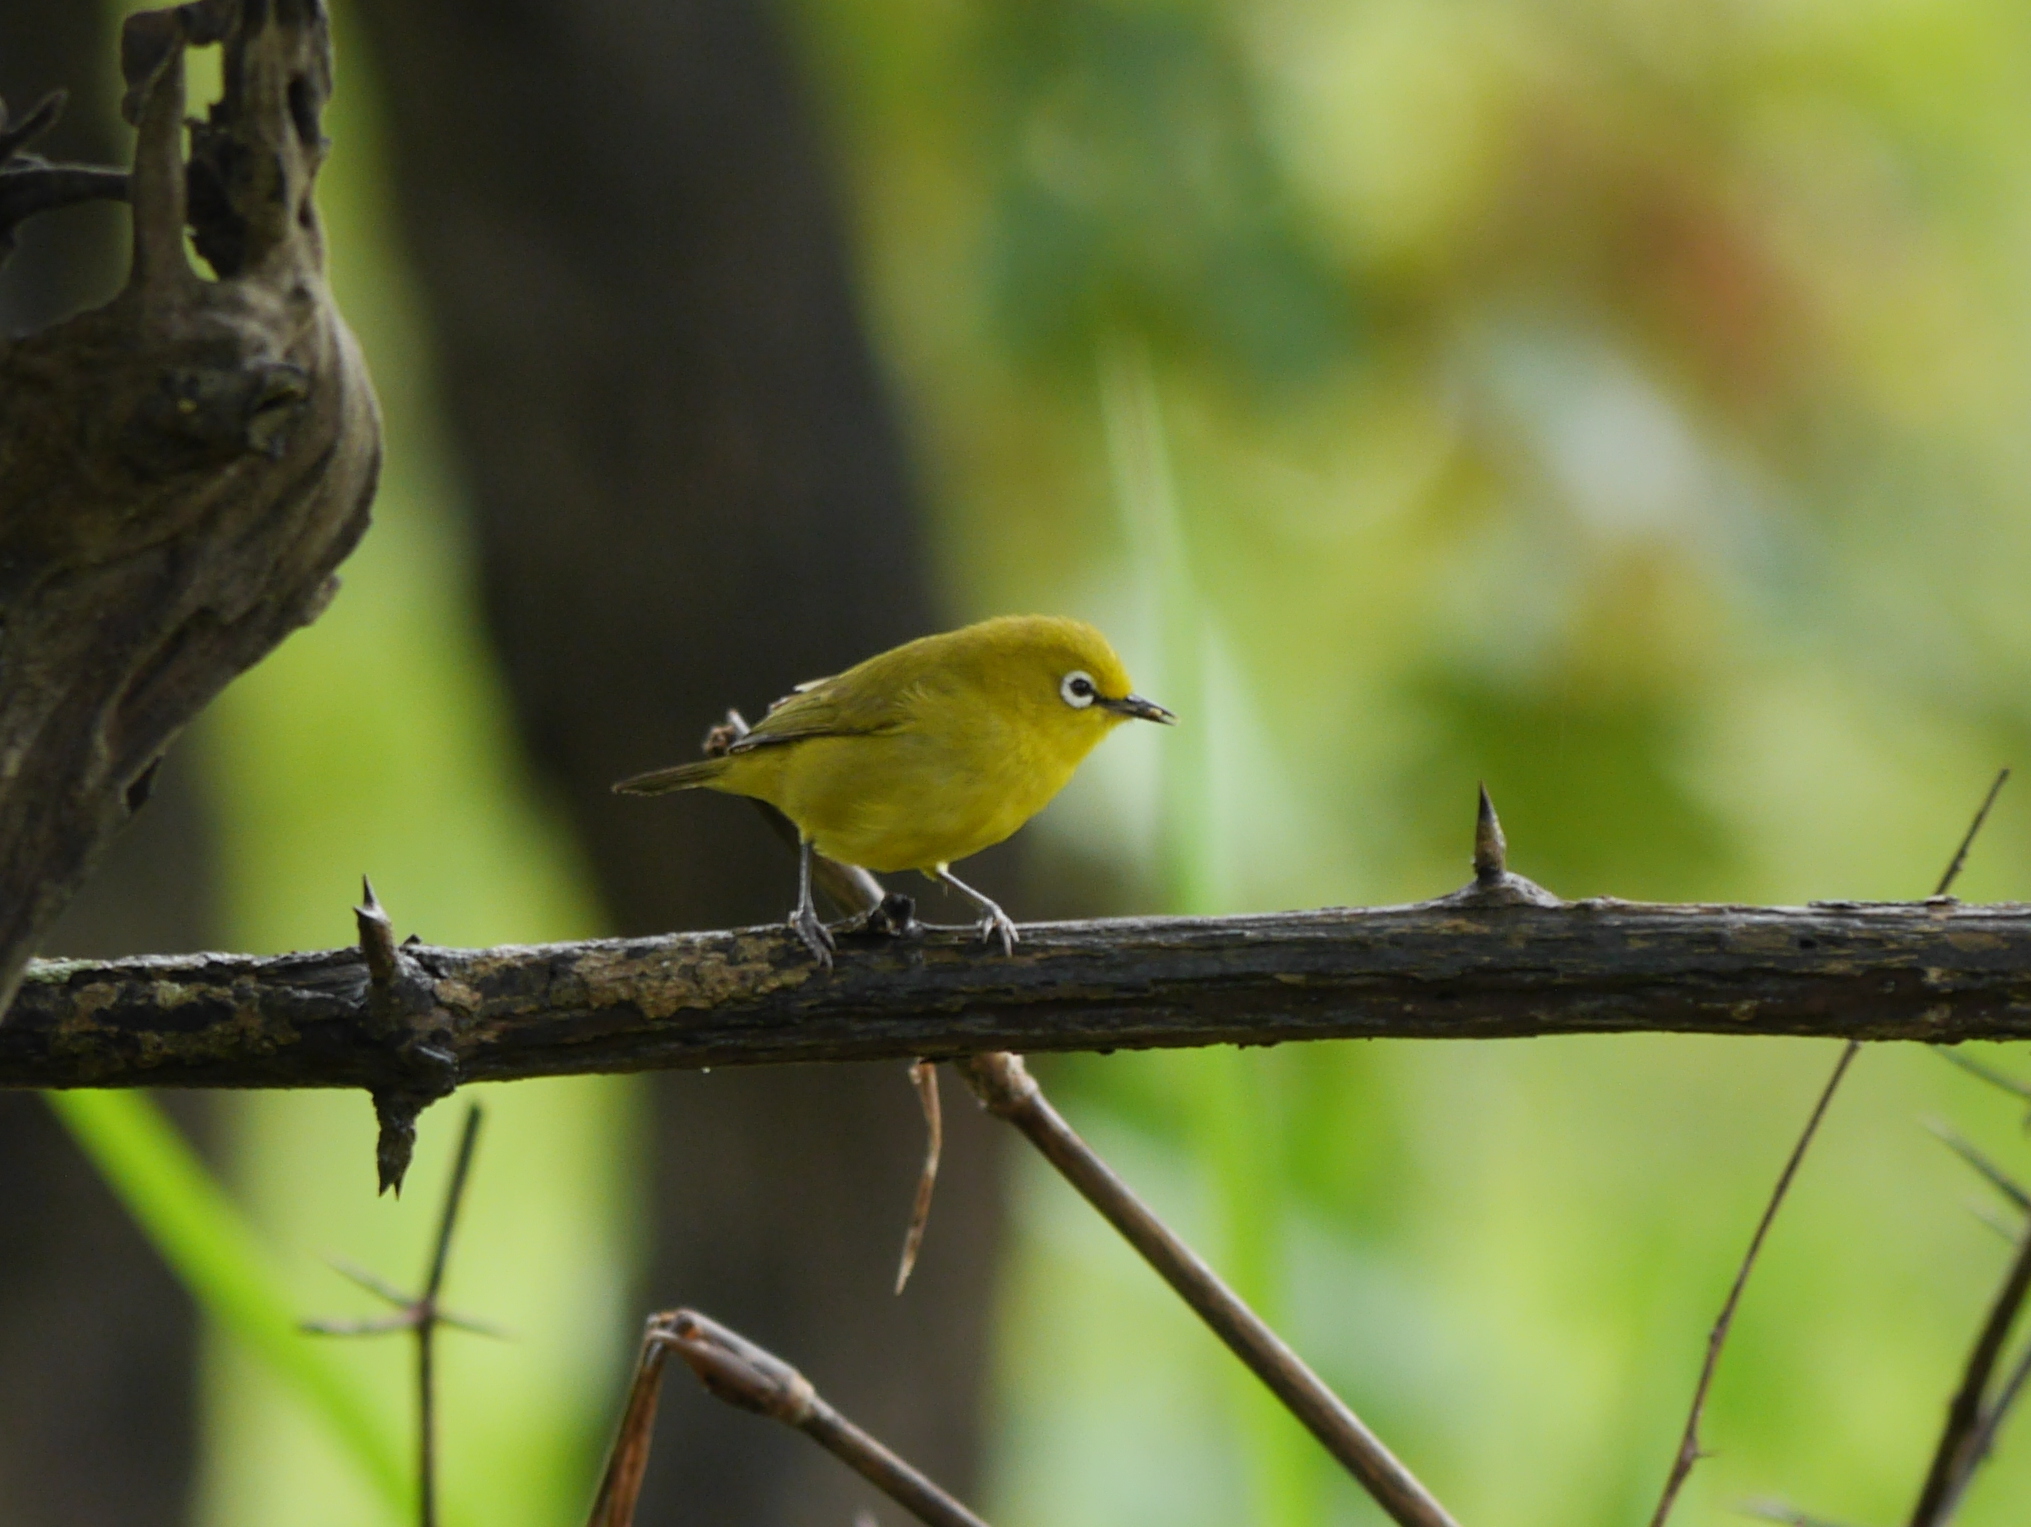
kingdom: Animalia
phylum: Chordata
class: Aves
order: Passeriformes
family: Zosteropidae
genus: Zosterops
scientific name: Zosterops senegalensis
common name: African yellow white-eye
